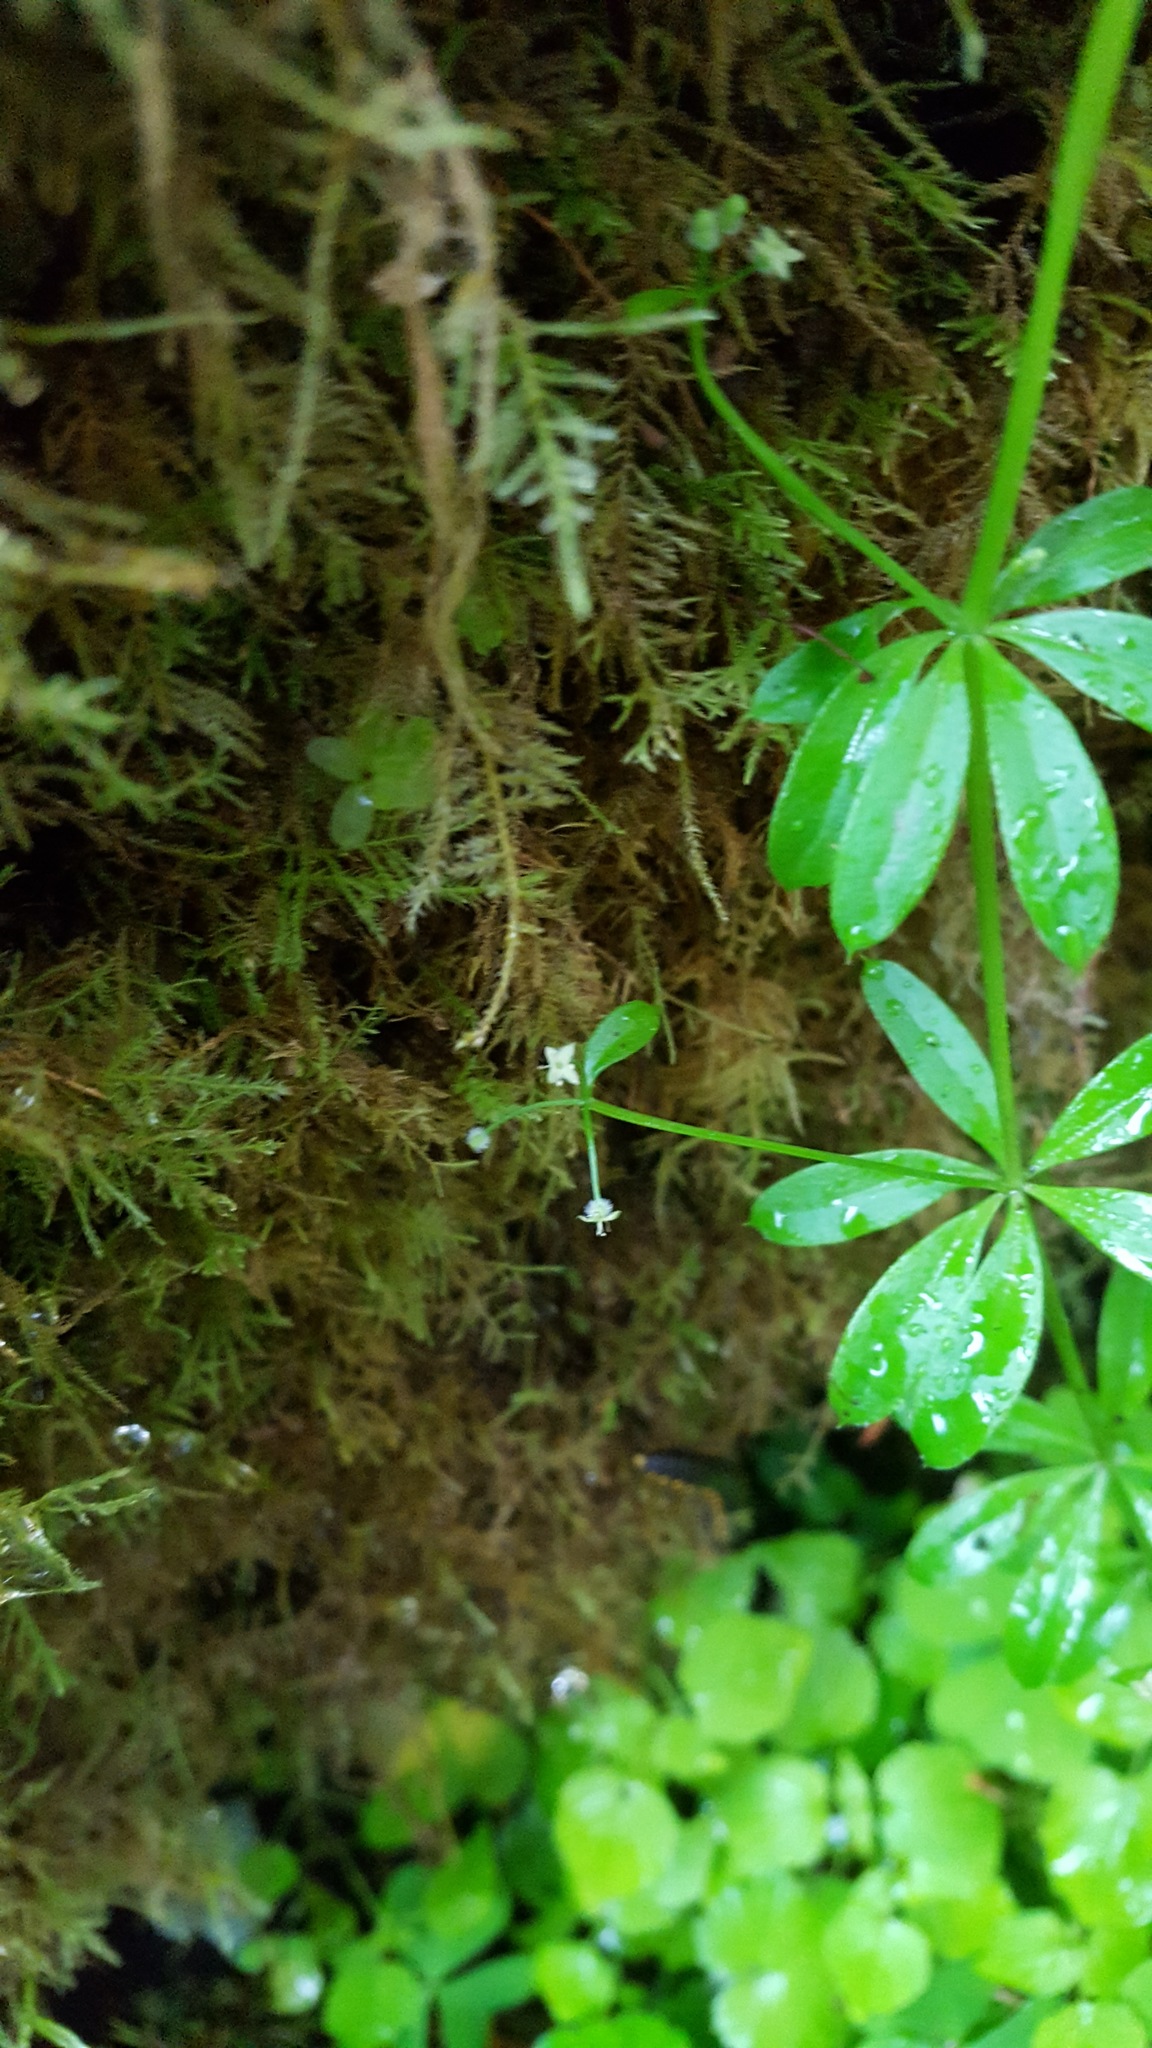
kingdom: Plantae
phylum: Tracheophyta
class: Magnoliopsida
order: Gentianales
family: Rubiaceae
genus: Galium
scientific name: Galium triflorum
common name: Fragrant bedstraw
